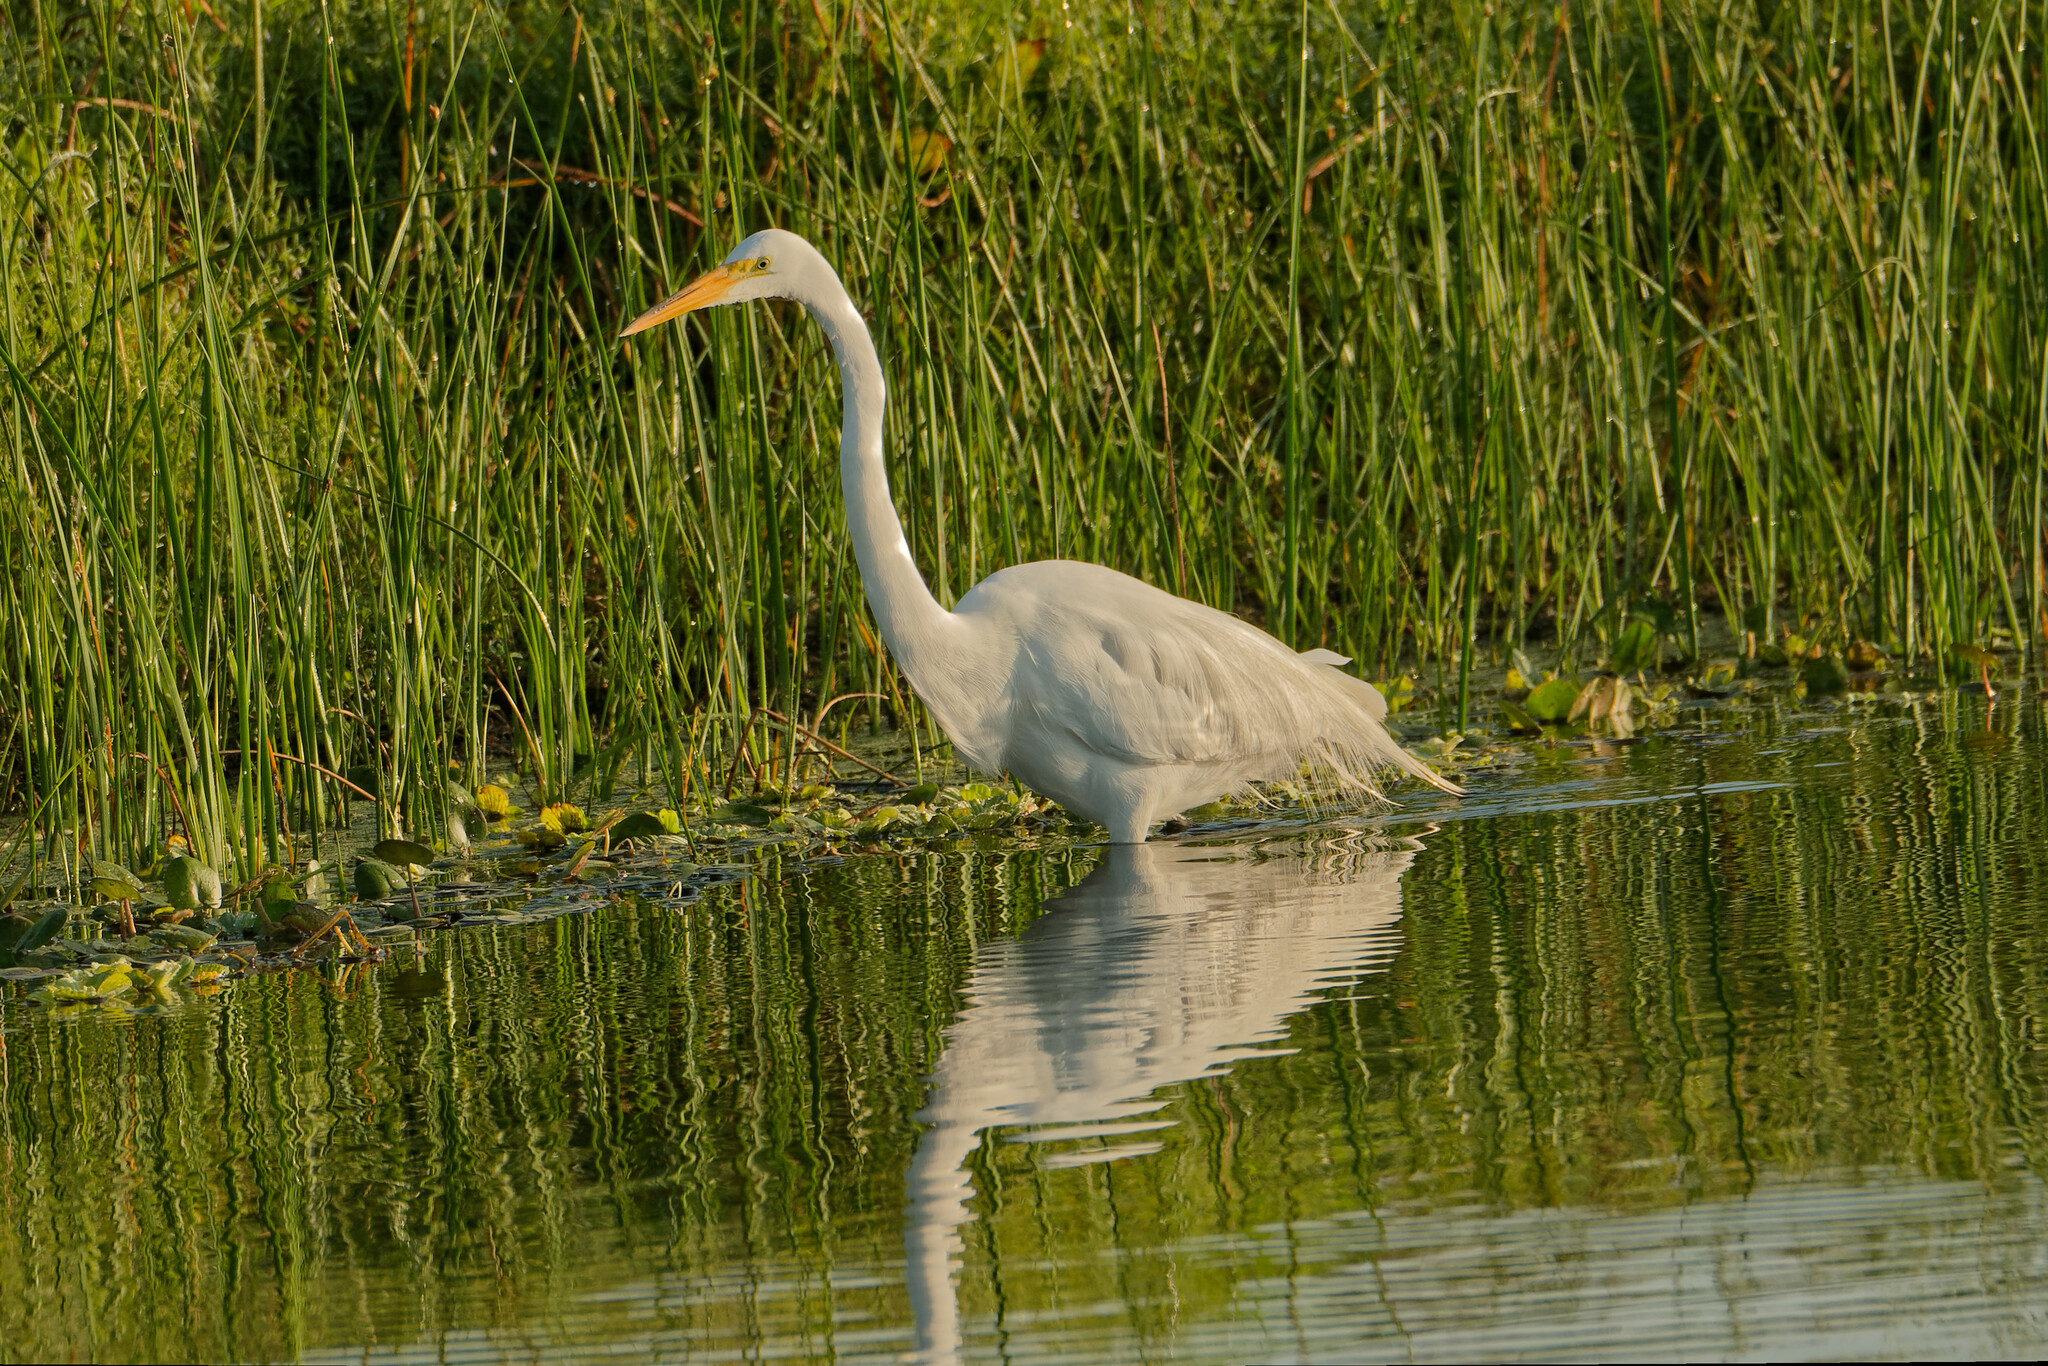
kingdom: Animalia
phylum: Chordata
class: Aves
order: Pelecaniformes
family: Ardeidae
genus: Ardea
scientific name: Ardea alba
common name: Great egret
